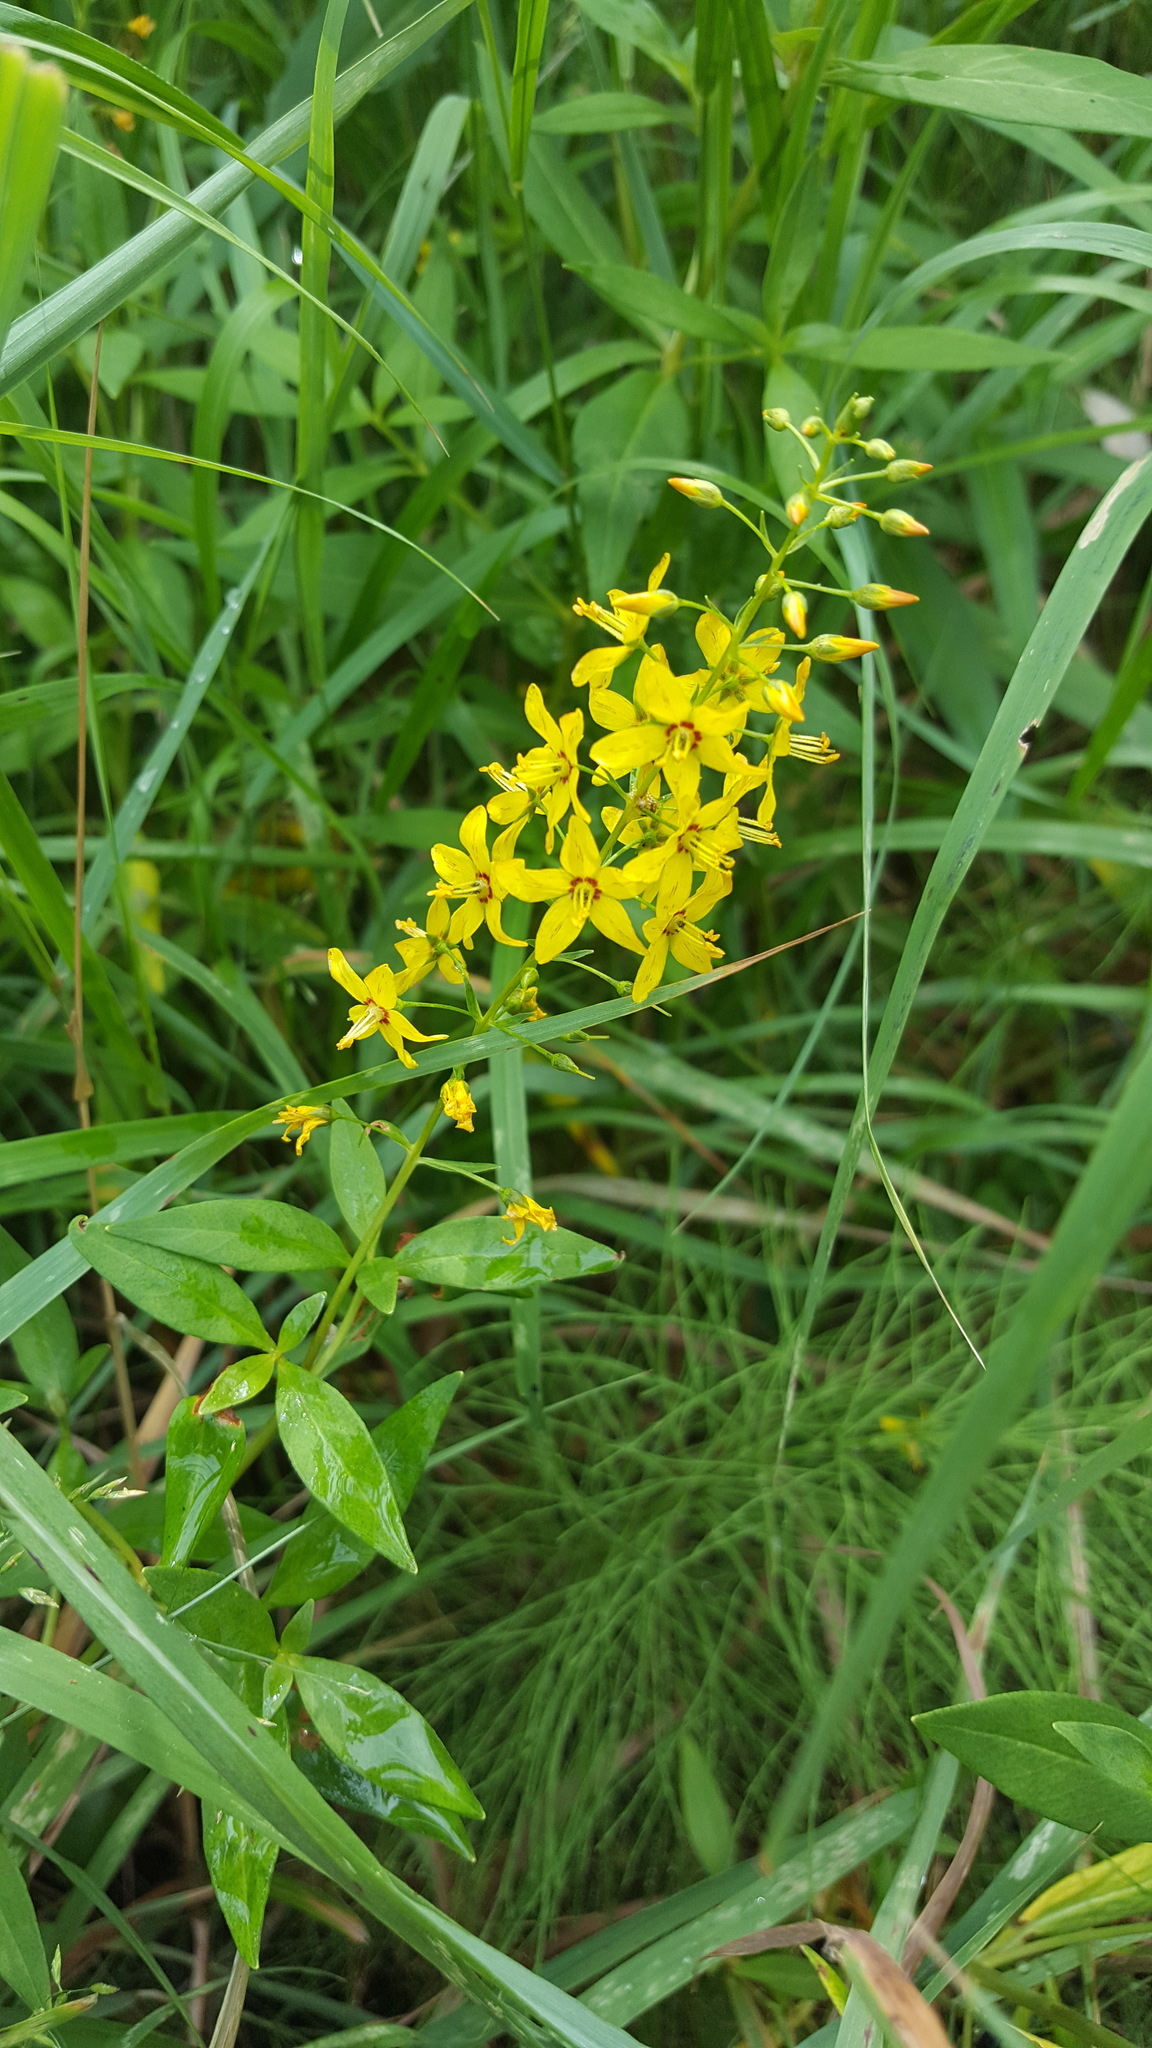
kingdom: Plantae
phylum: Tracheophyta
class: Magnoliopsida
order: Ericales
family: Primulaceae
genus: Lysimachia
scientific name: Lysimachia terrestris
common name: Lake loosestrife
